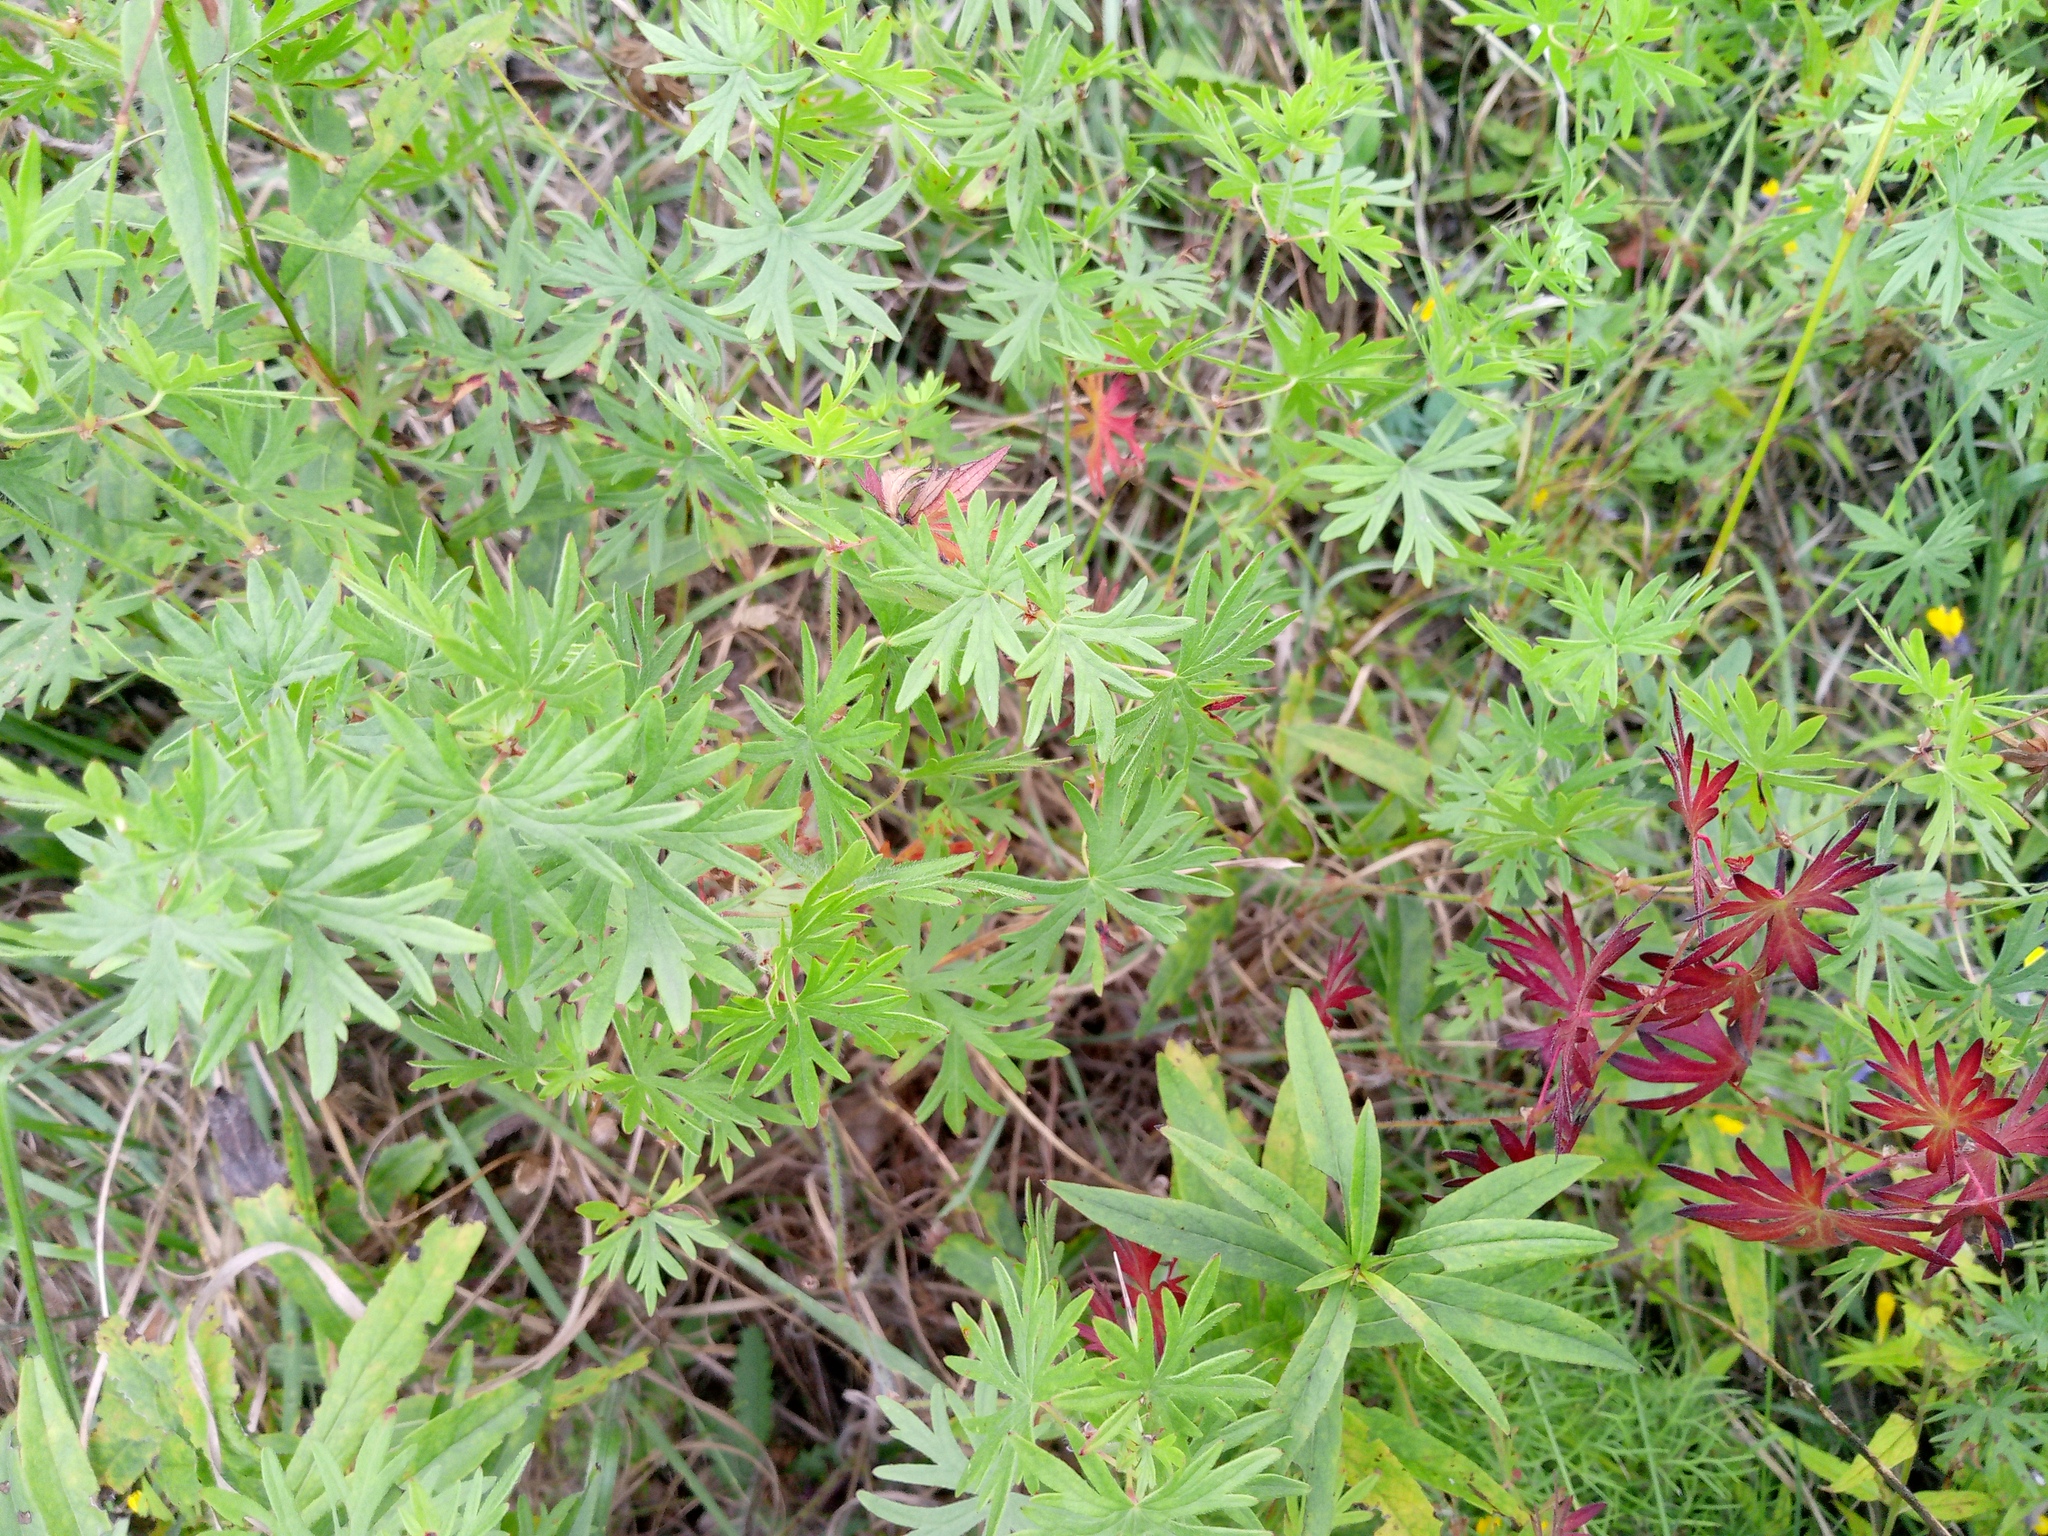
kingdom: Plantae
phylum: Tracheophyta
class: Magnoliopsida
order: Geraniales
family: Geraniaceae
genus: Geranium
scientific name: Geranium sanguineum
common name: Bloody crane's-bill
